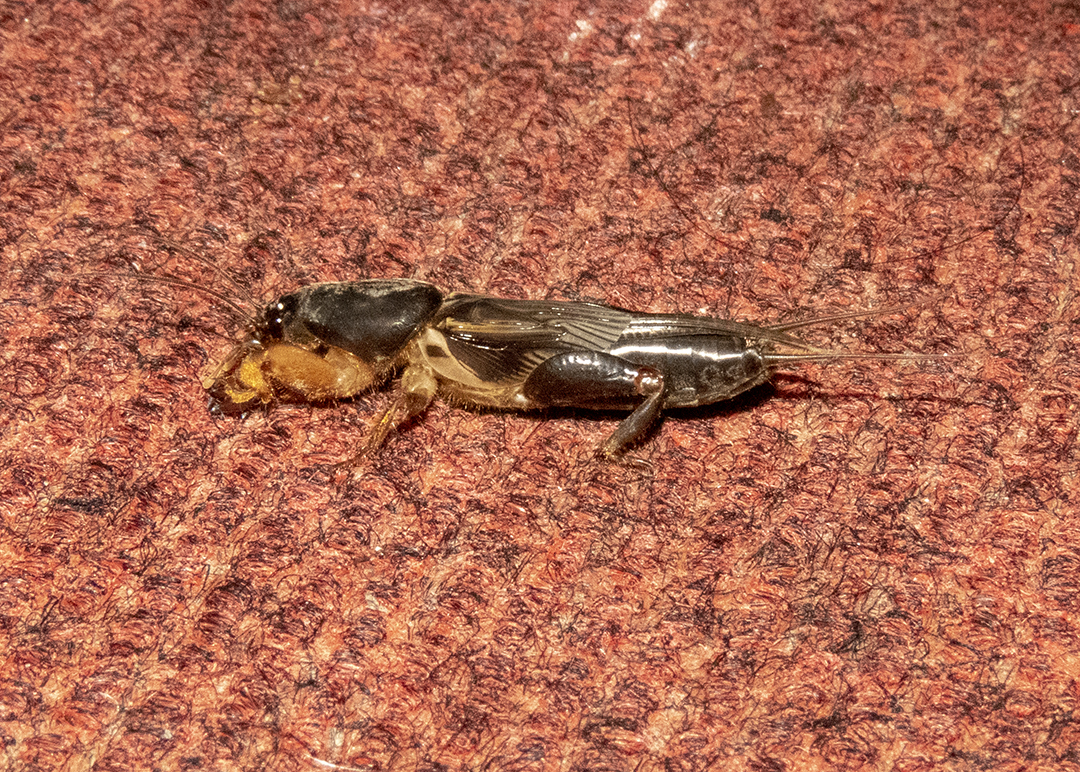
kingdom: Animalia
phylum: Arthropoda
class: Insecta
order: Orthoptera
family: Gryllotalpidae
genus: Gryllotalpa
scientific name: Gryllotalpa orientalis
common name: Grasshopper
